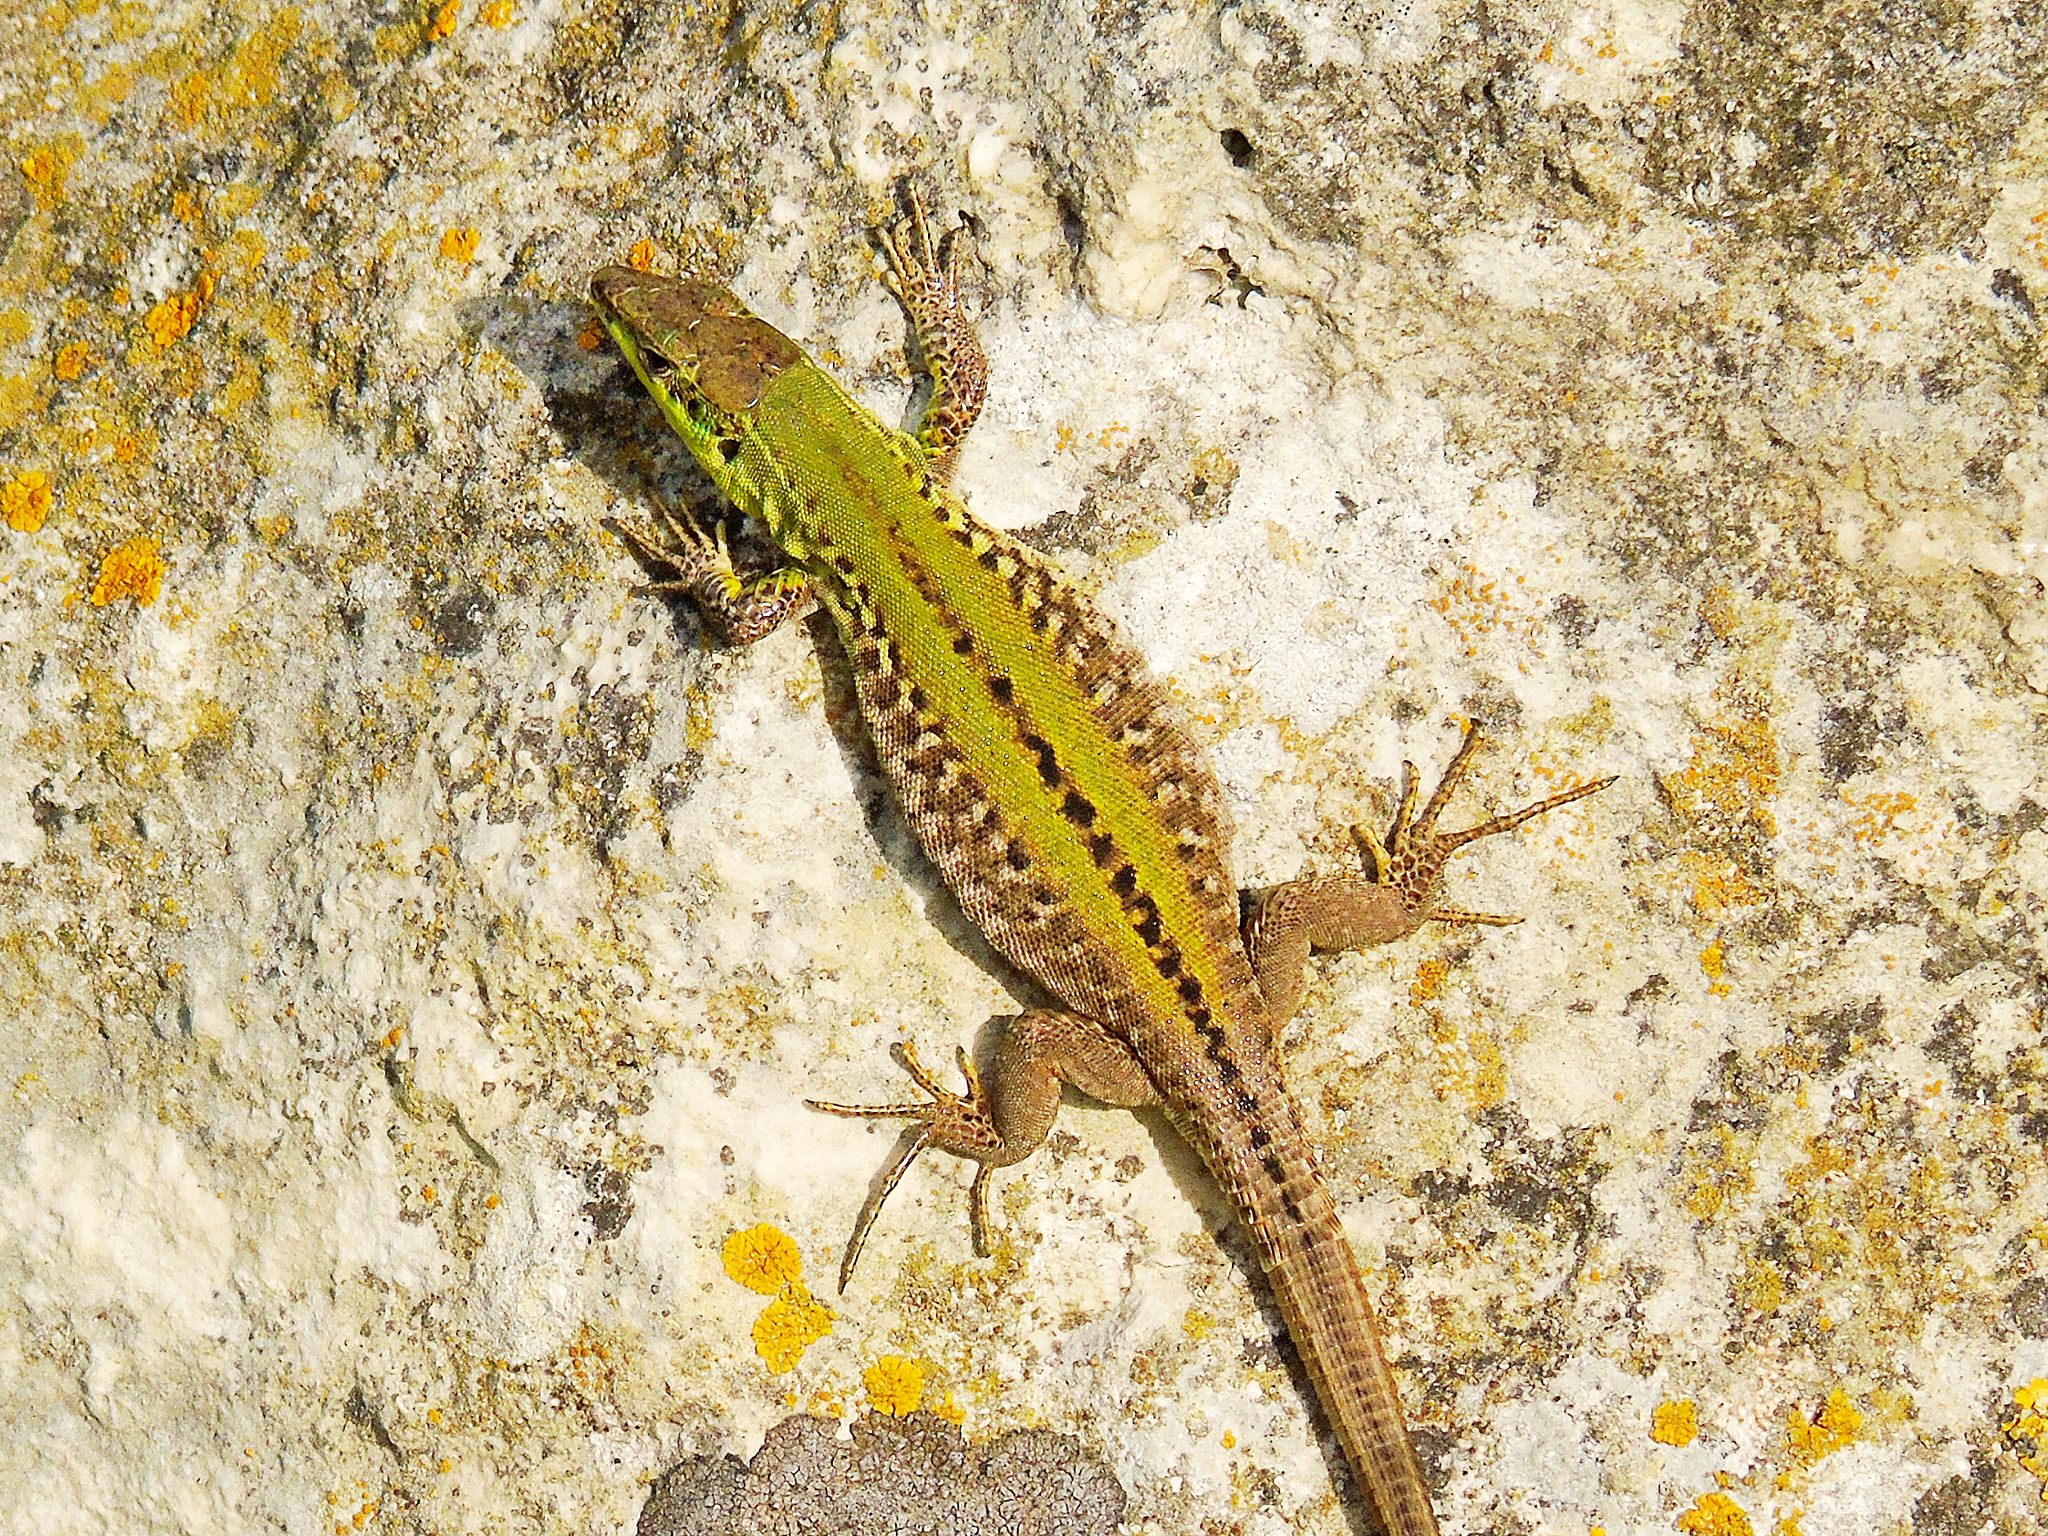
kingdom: Animalia
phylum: Chordata
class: Squamata
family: Lacertidae
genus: Podarcis
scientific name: Podarcis siculus
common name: Italian wall lizard
